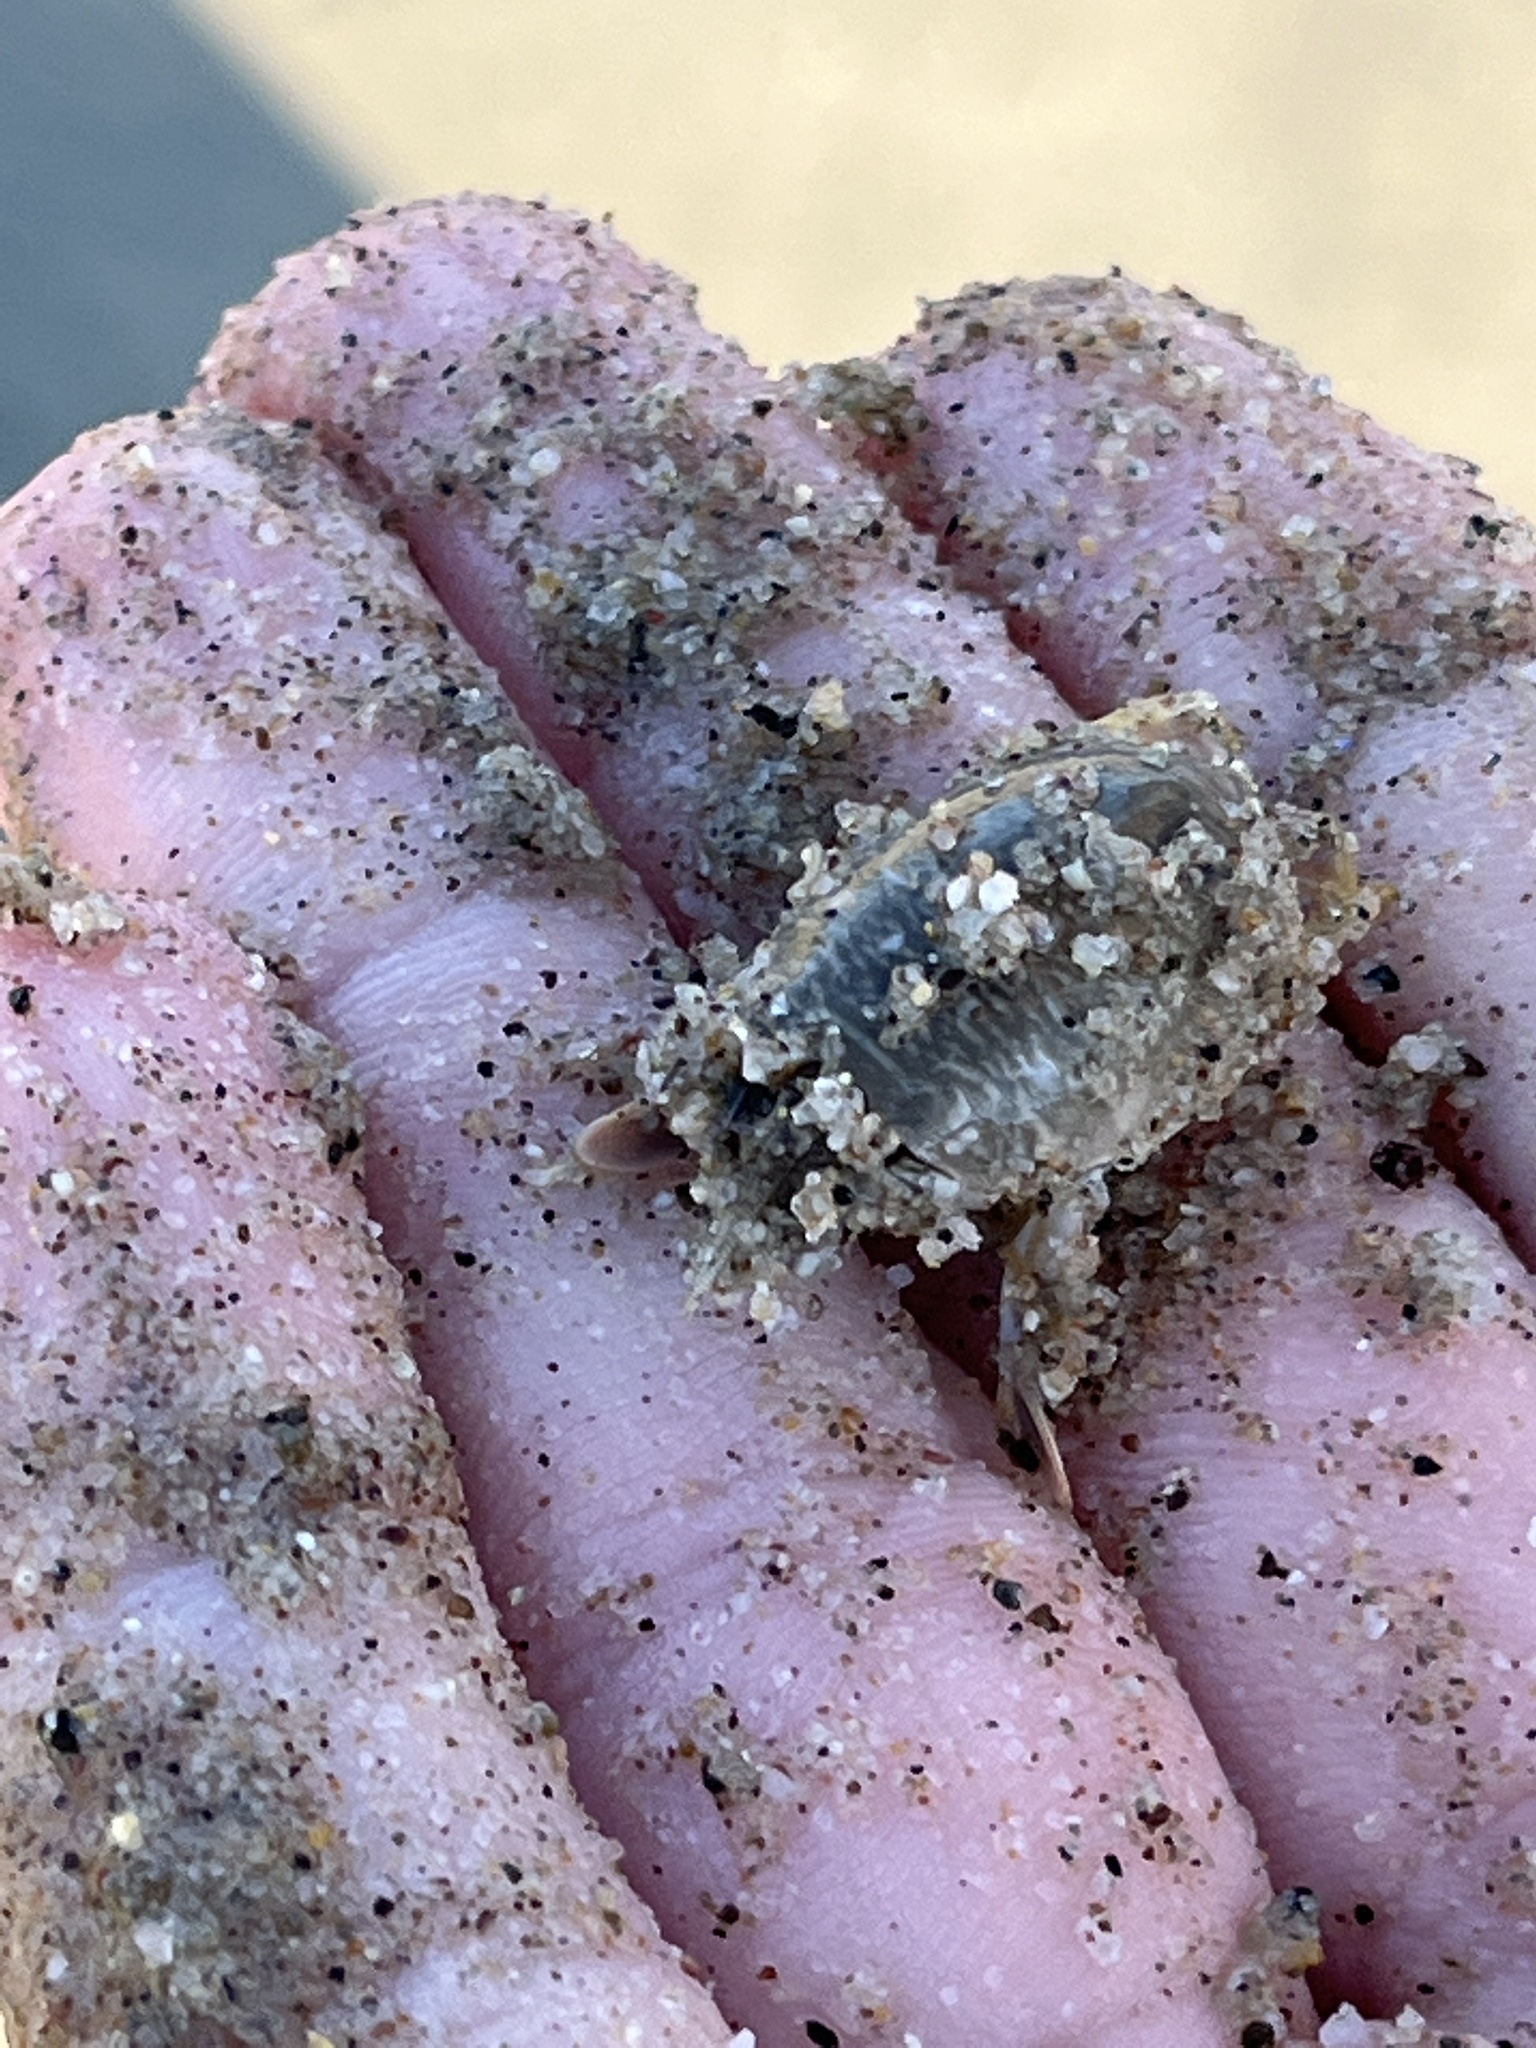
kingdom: Animalia
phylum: Arthropoda
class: Malacostraca
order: Decapoda
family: Hippidae
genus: Emerita
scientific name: Emerita analoga
